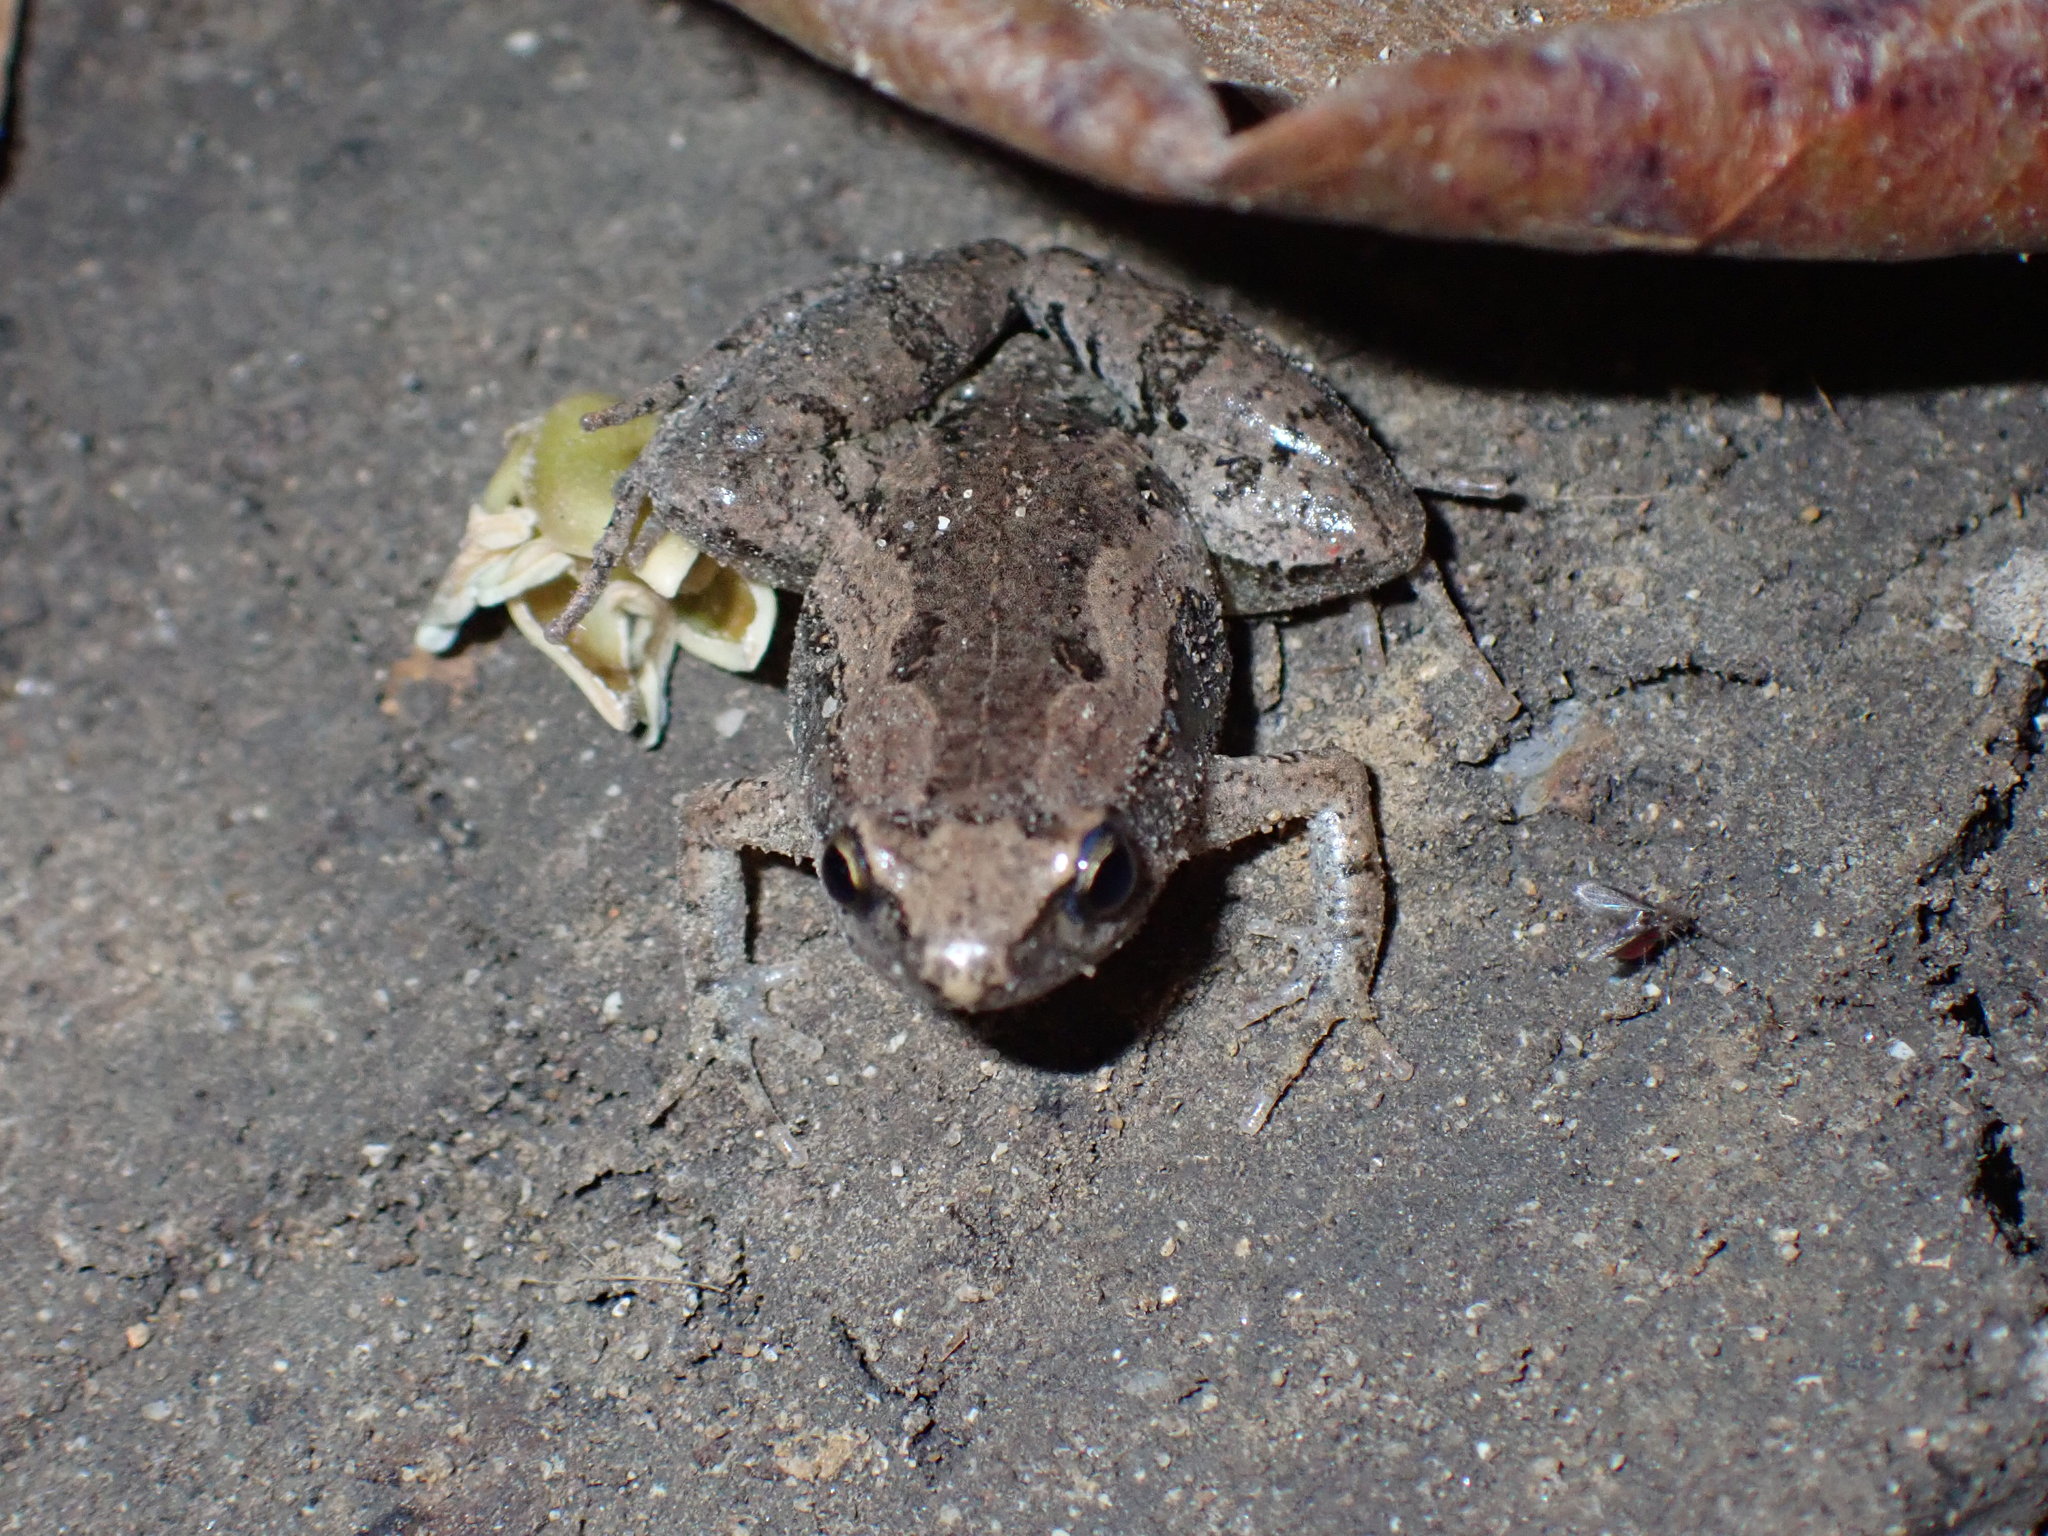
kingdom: Animalia
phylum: Chordata
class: Amphibia
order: Anura
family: Microhylidae
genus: Microhyla
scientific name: Microhyla mukhlesuri
